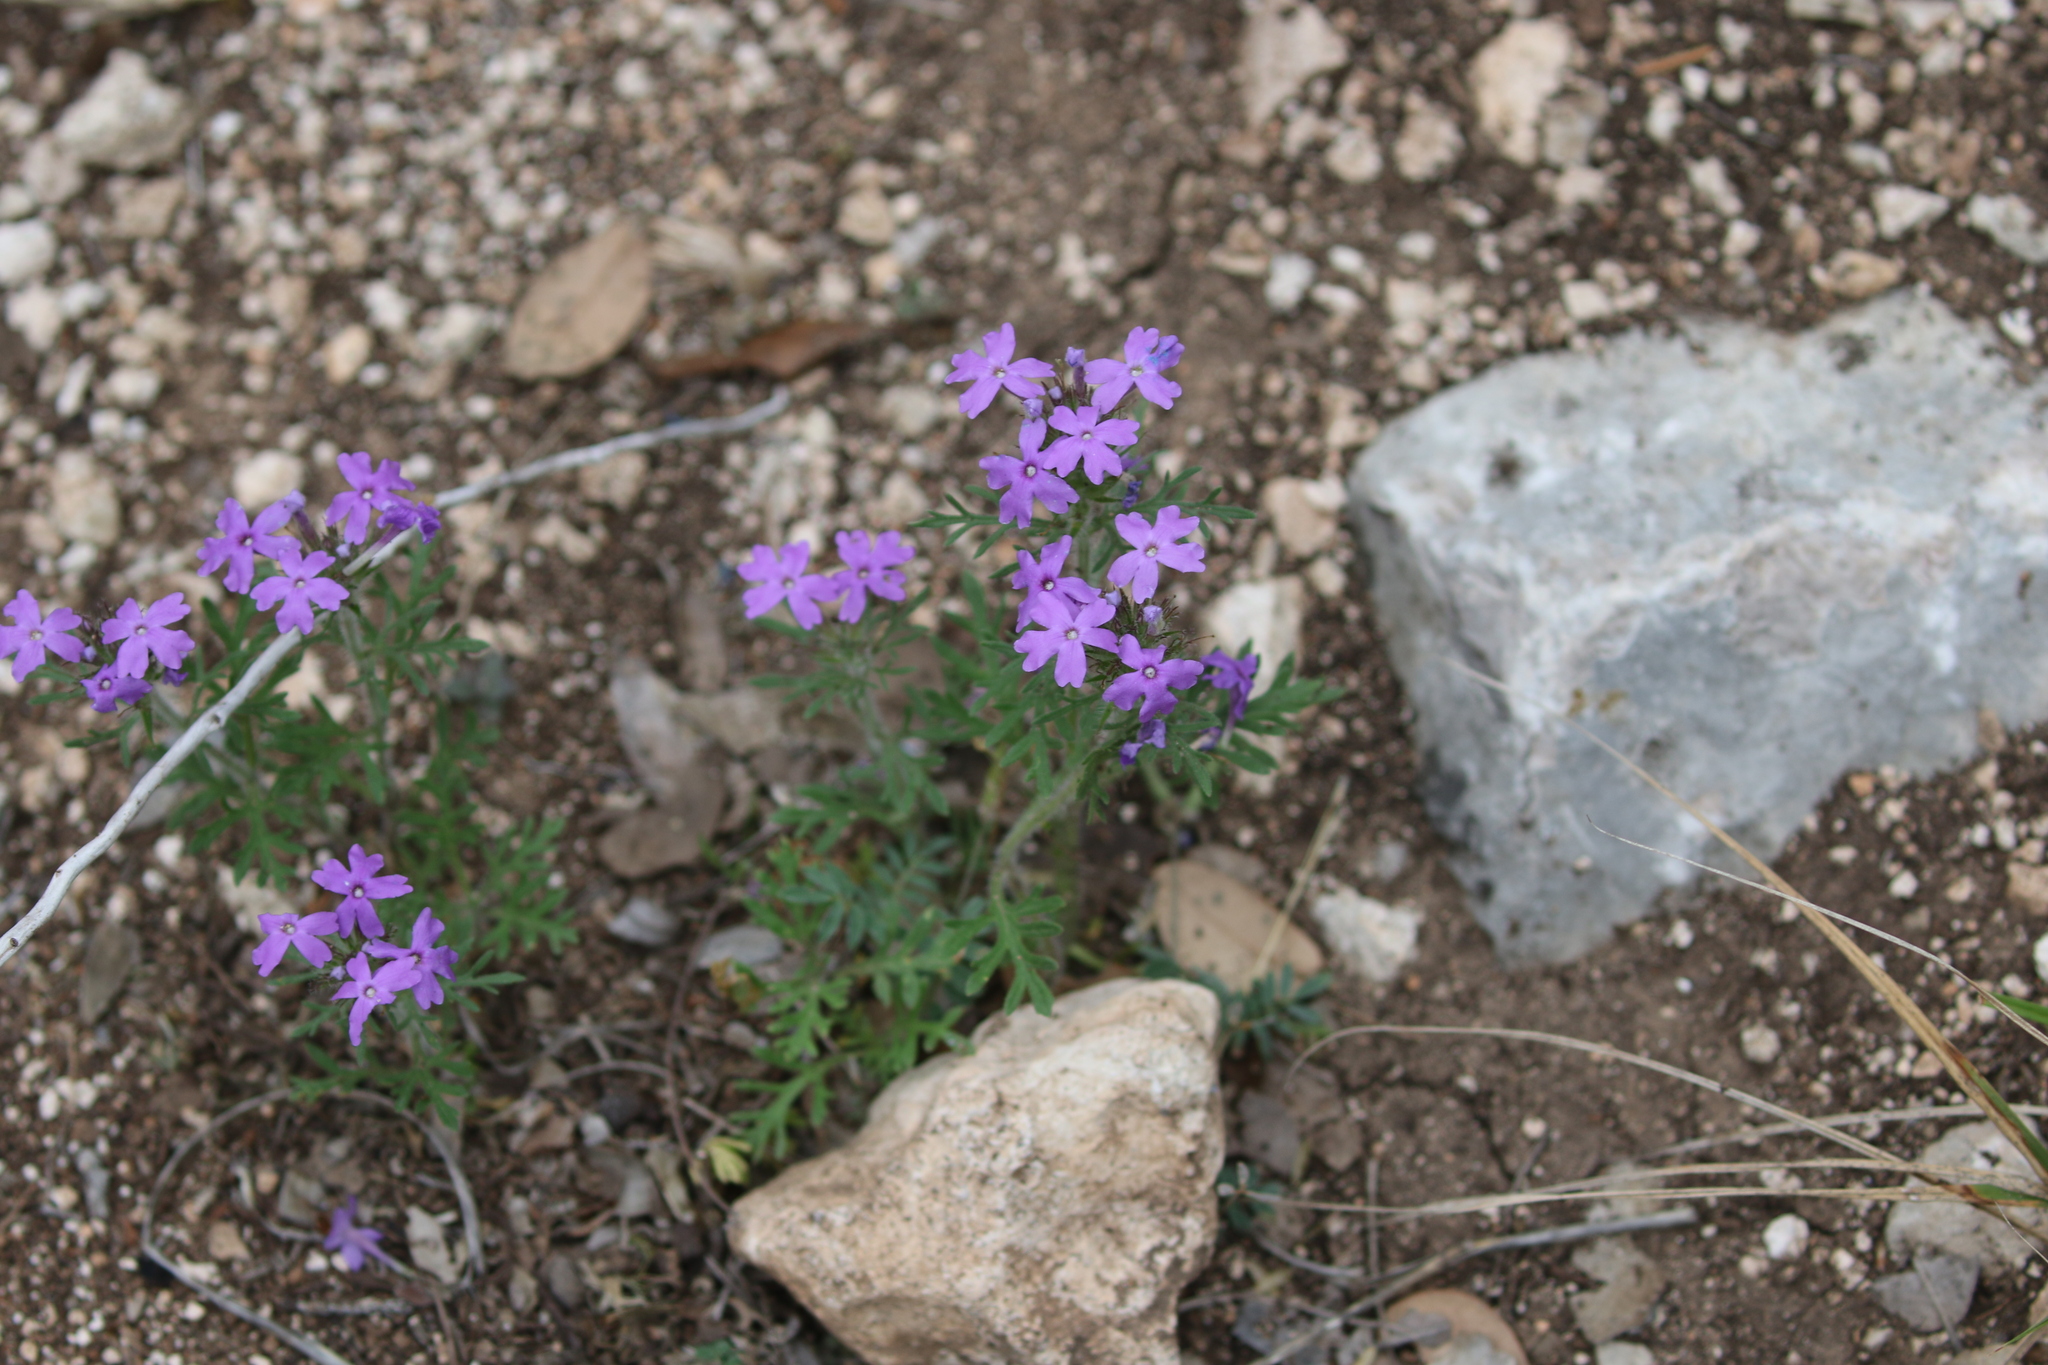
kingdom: Plantae
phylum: Tracheophyta
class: Magnoliopsida
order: Lamiales
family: Verbenaceae
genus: Verbena
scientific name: Verbena bipinnatifida
